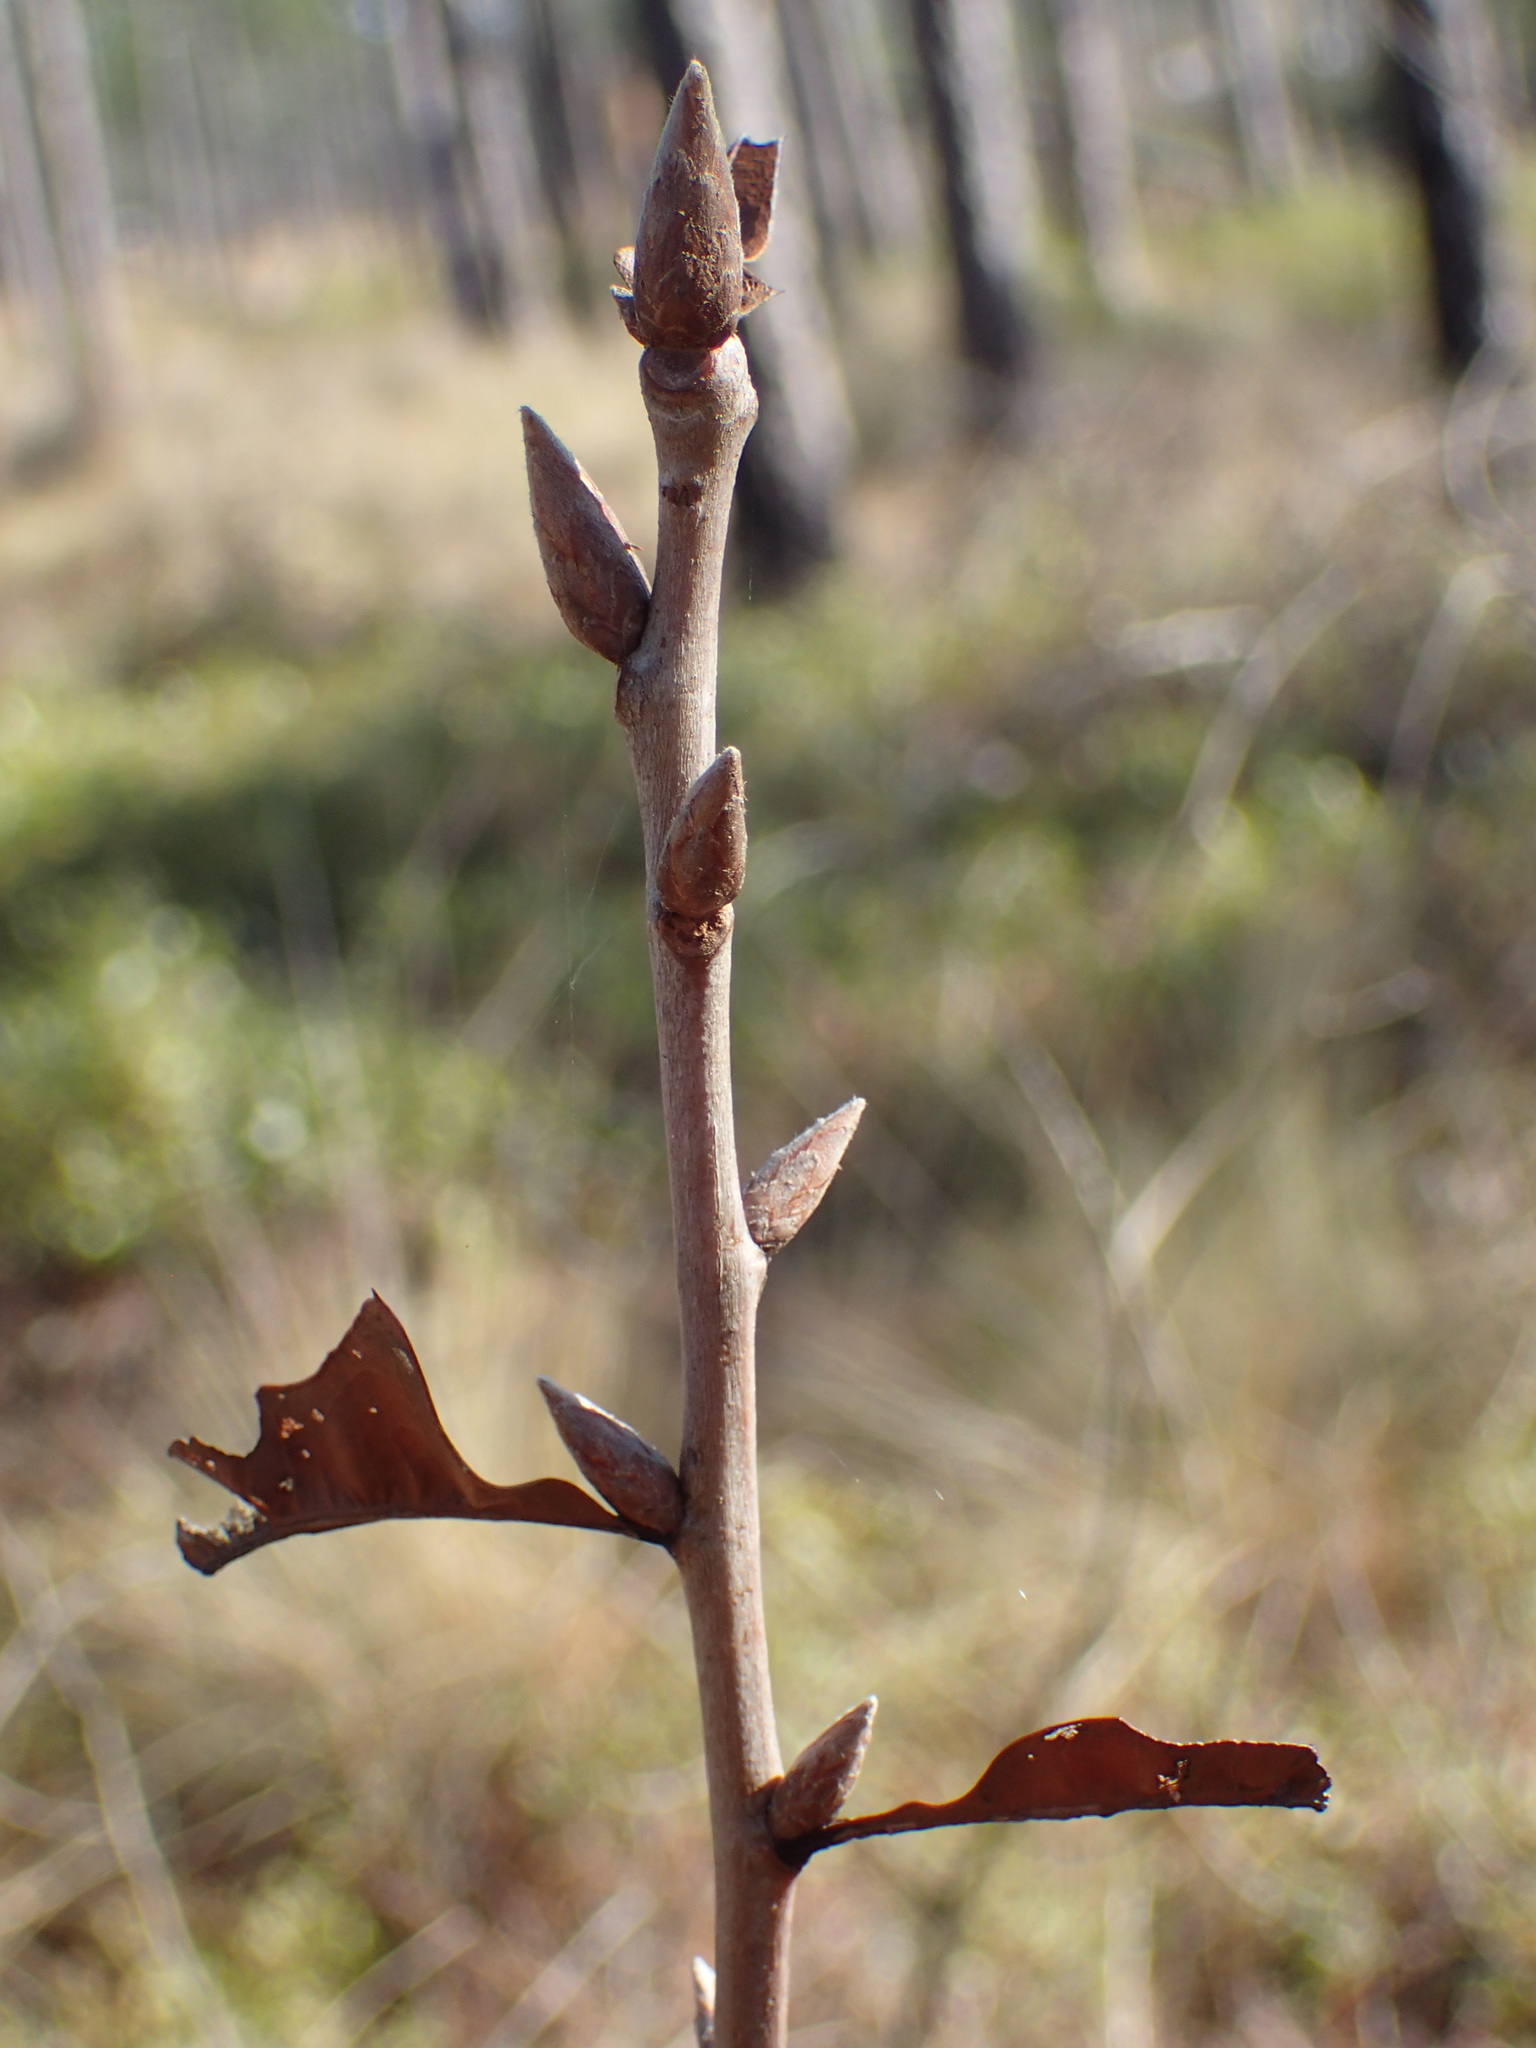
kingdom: Plantae
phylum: Tracheophyta
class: Magnoliopsida
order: Fagales
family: Fagaceae
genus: Quercus
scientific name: Quercus laevis
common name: Turkey oak
